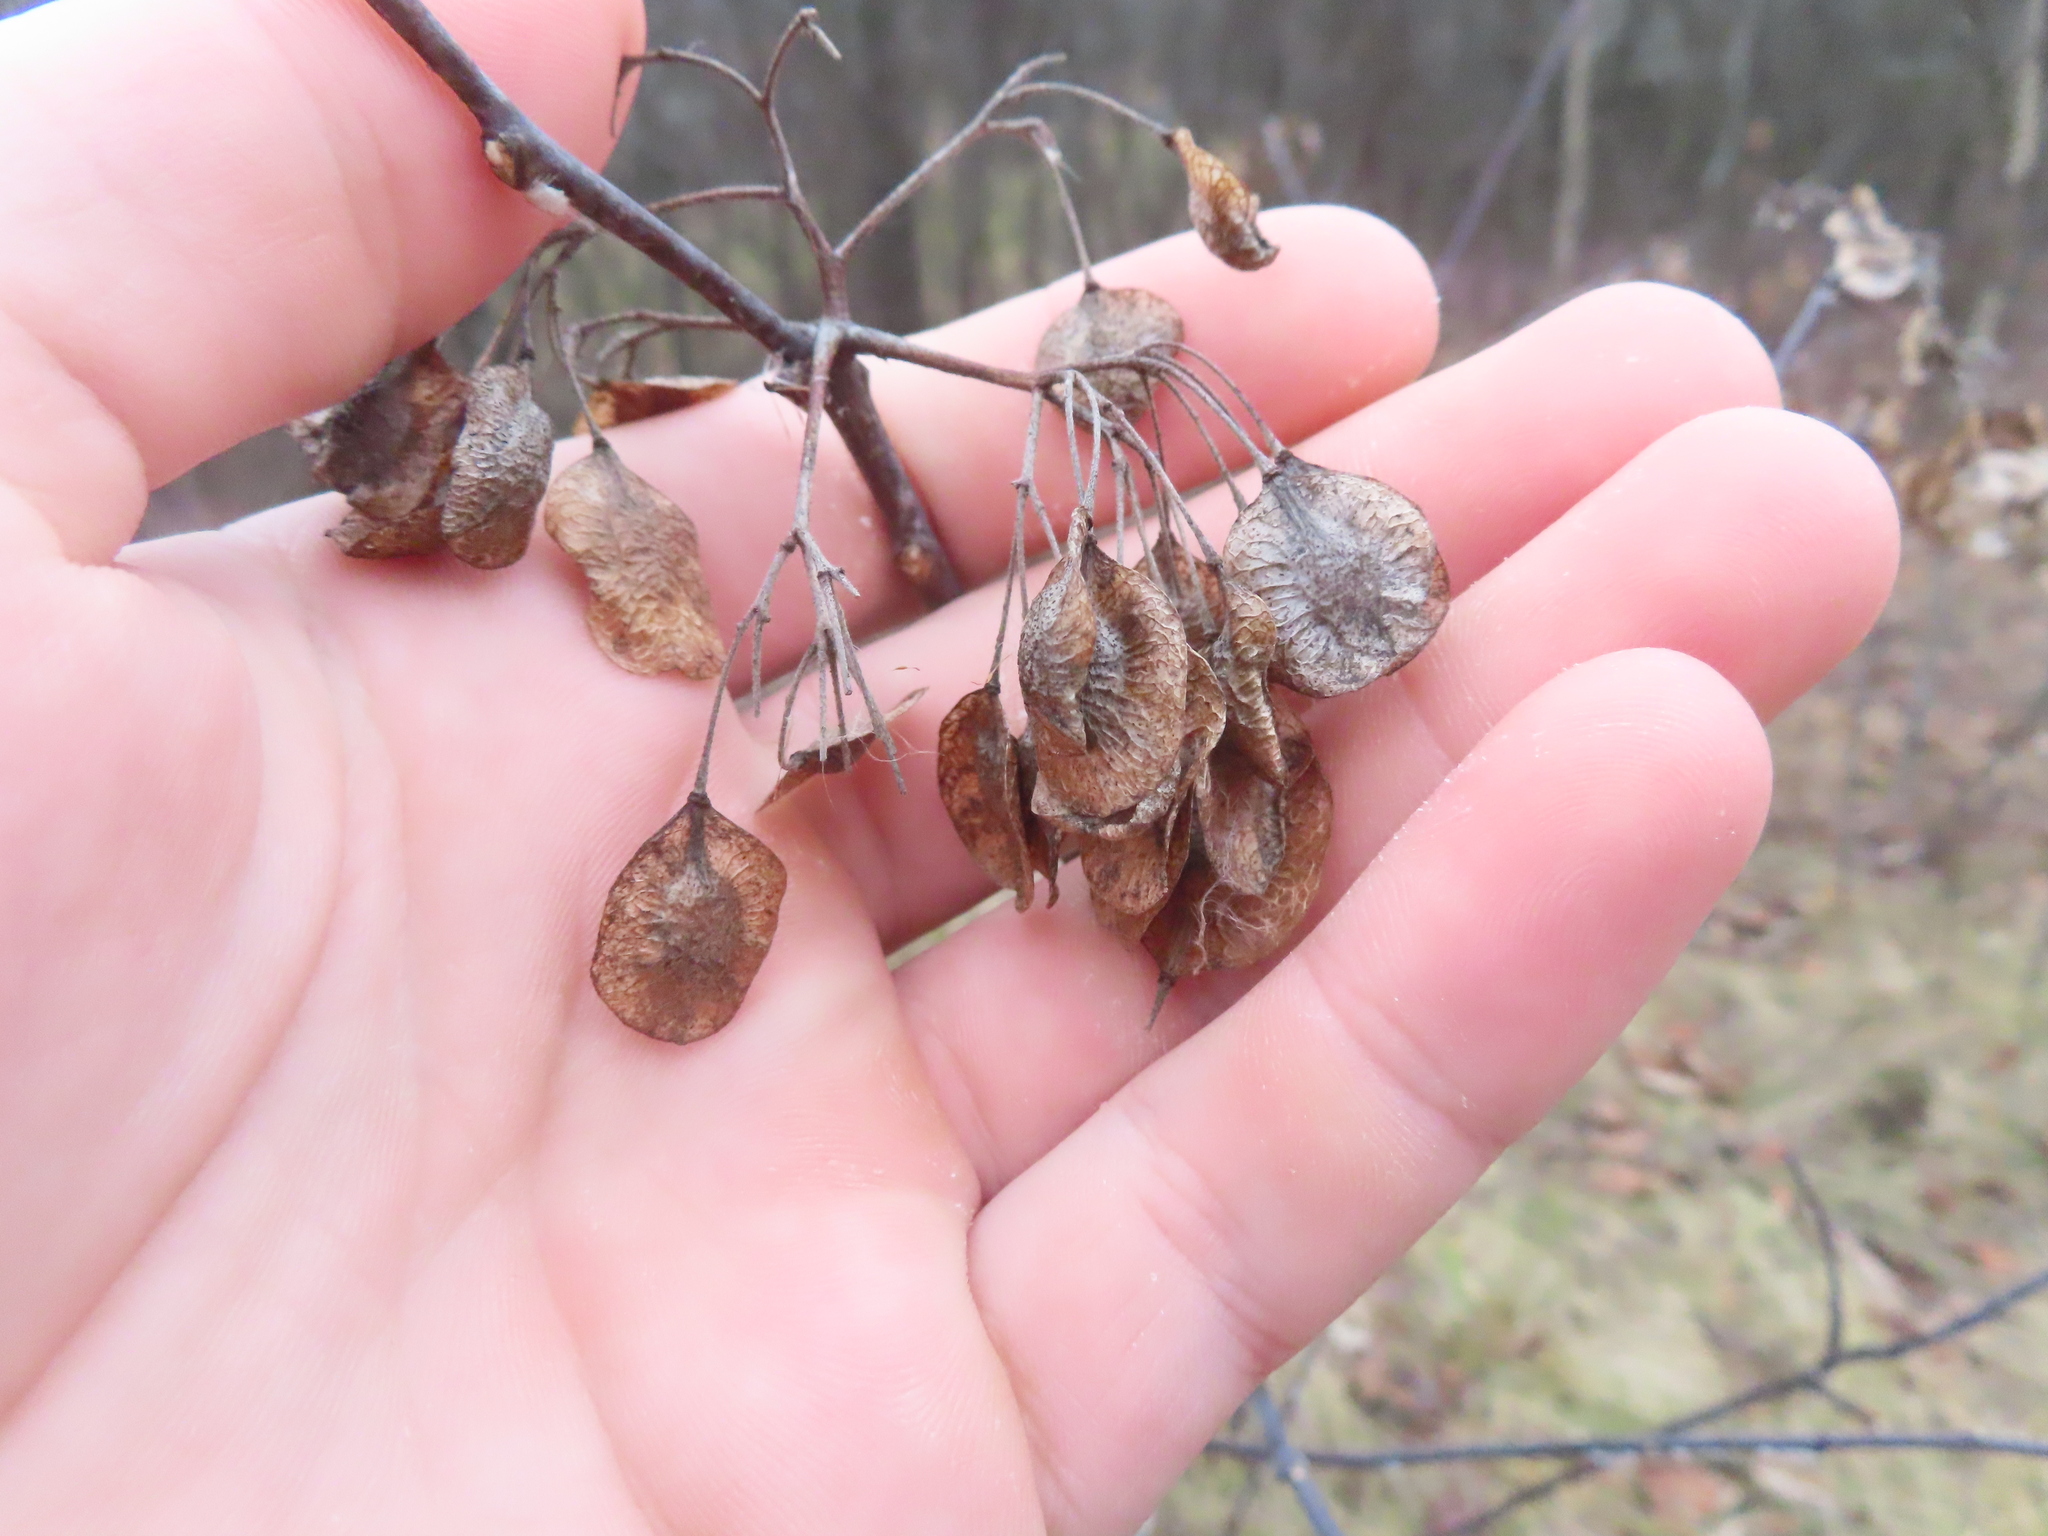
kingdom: Plantae
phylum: Tracheophyta
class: Magnoliopsida
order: Sapindales
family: Rutaceae
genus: Ptelea
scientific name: Ptelea trifoliata
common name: Common hop-tree
